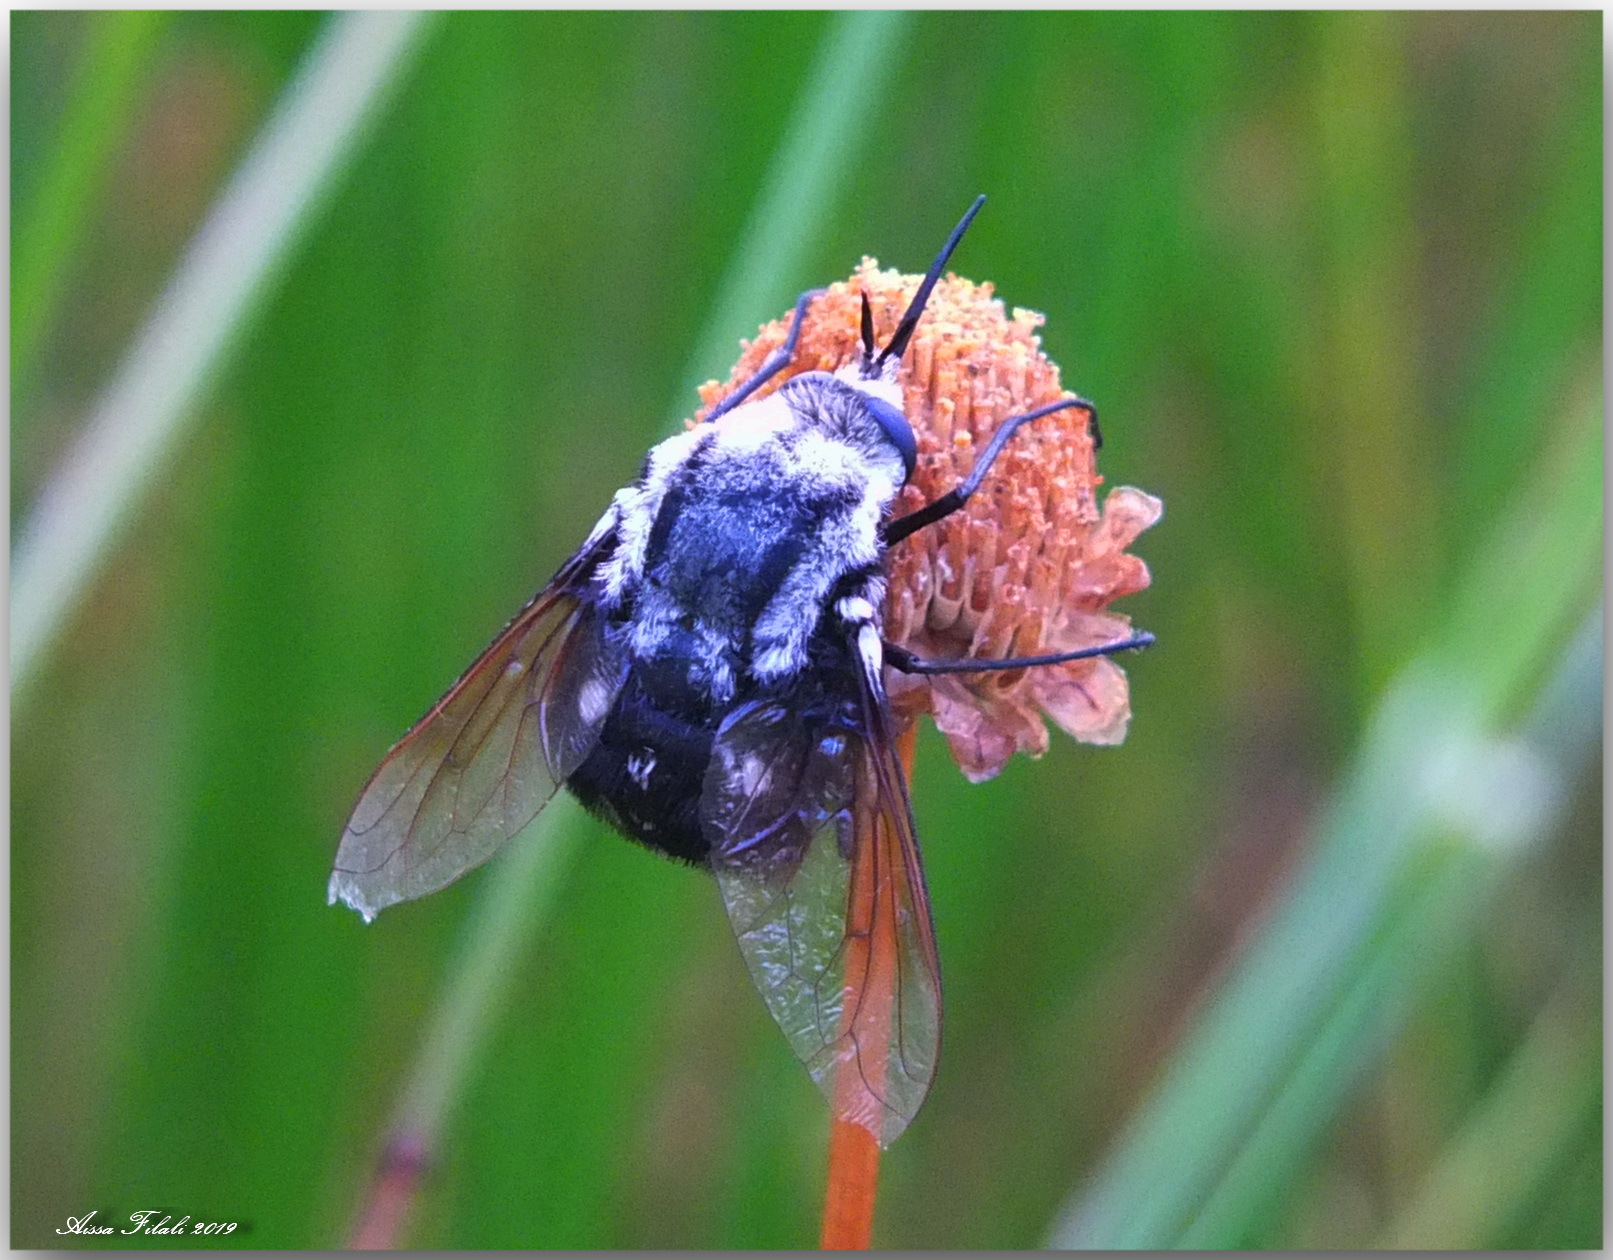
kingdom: Animalia
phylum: Arthropoda
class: Insecta
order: Diptera
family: Bombyliidae
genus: Bombomyia
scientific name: Bombomyia vertebralis
